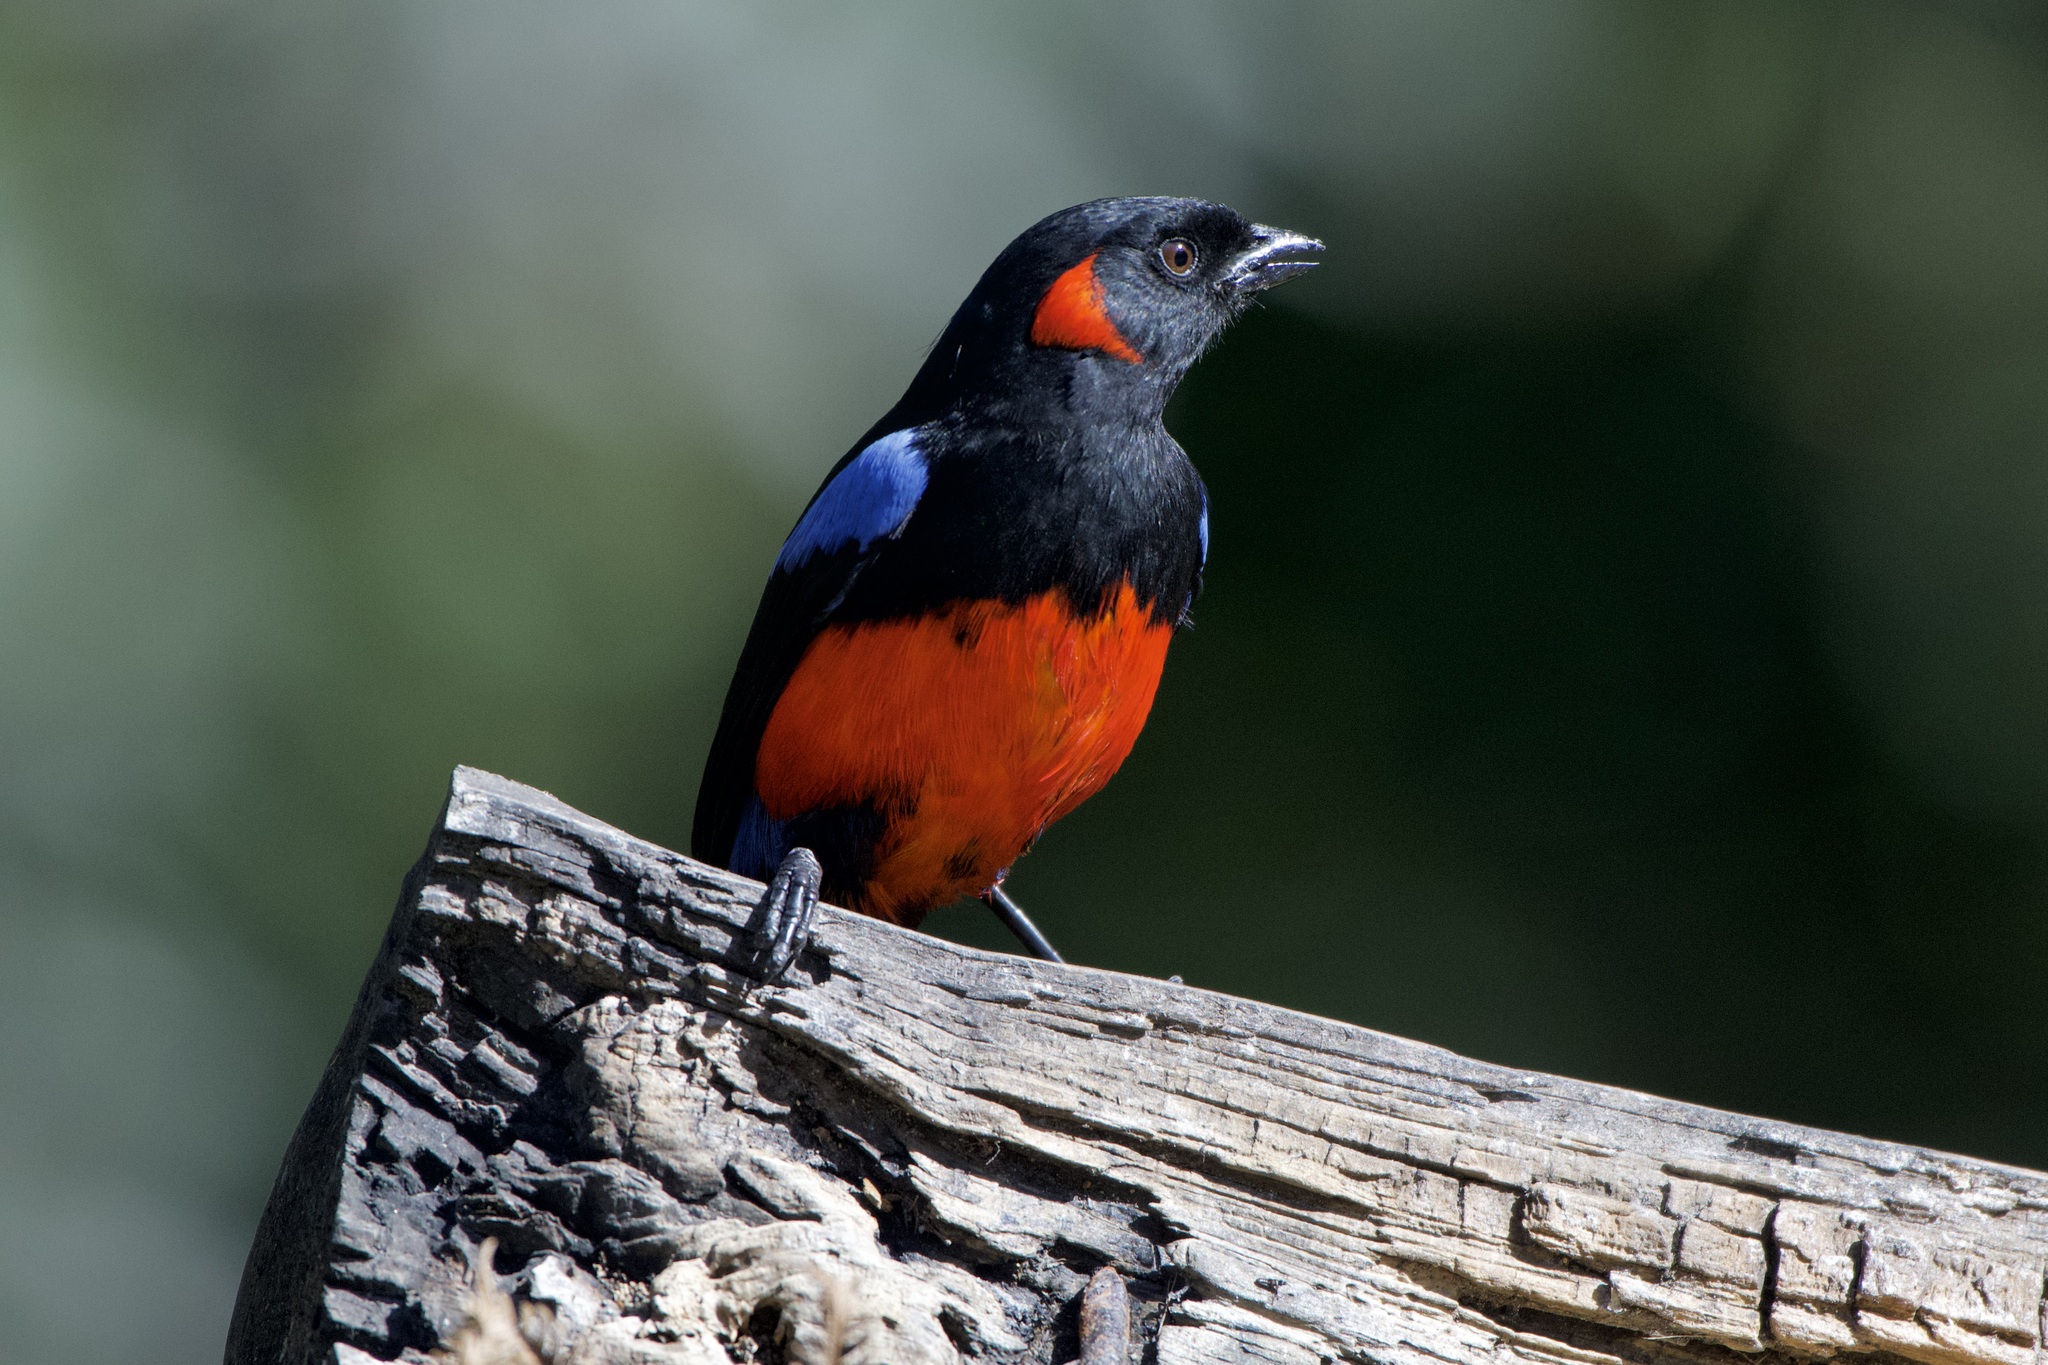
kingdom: Animalia
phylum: Chordata
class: Aves
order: Passeriformes
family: Thraupidae
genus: Anisognathus
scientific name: Anisognathus igniventris
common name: Scarlet-bellied mountain tanager
